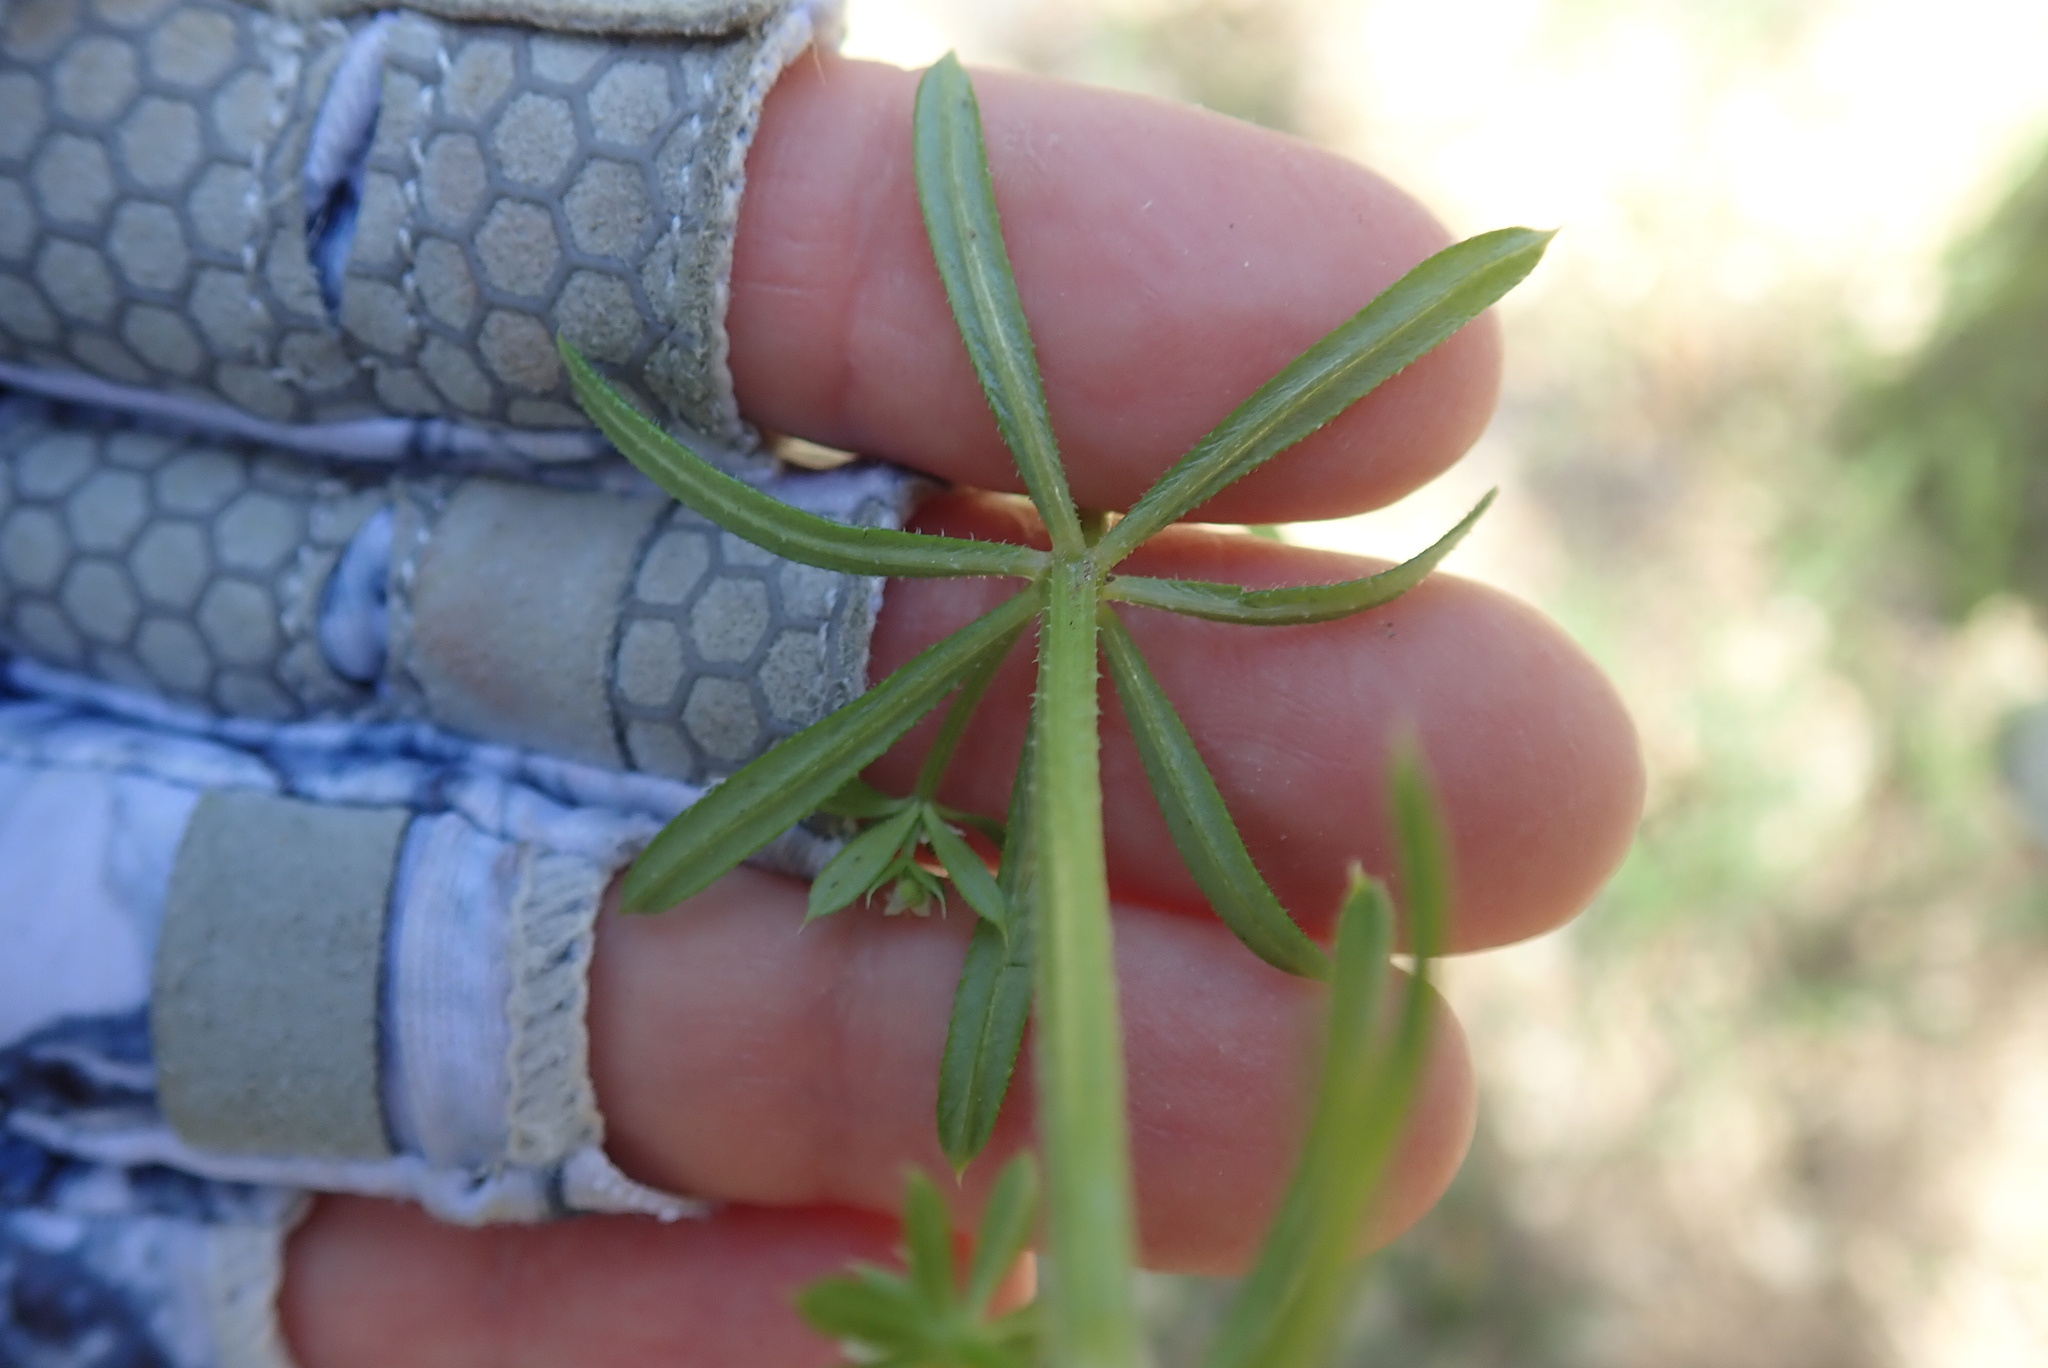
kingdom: Plantae
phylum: Tracheophyta
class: Magnoliopsida
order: Gentianales
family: Rubiaceae
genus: Galium
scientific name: Galium aparine
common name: Cleavers
